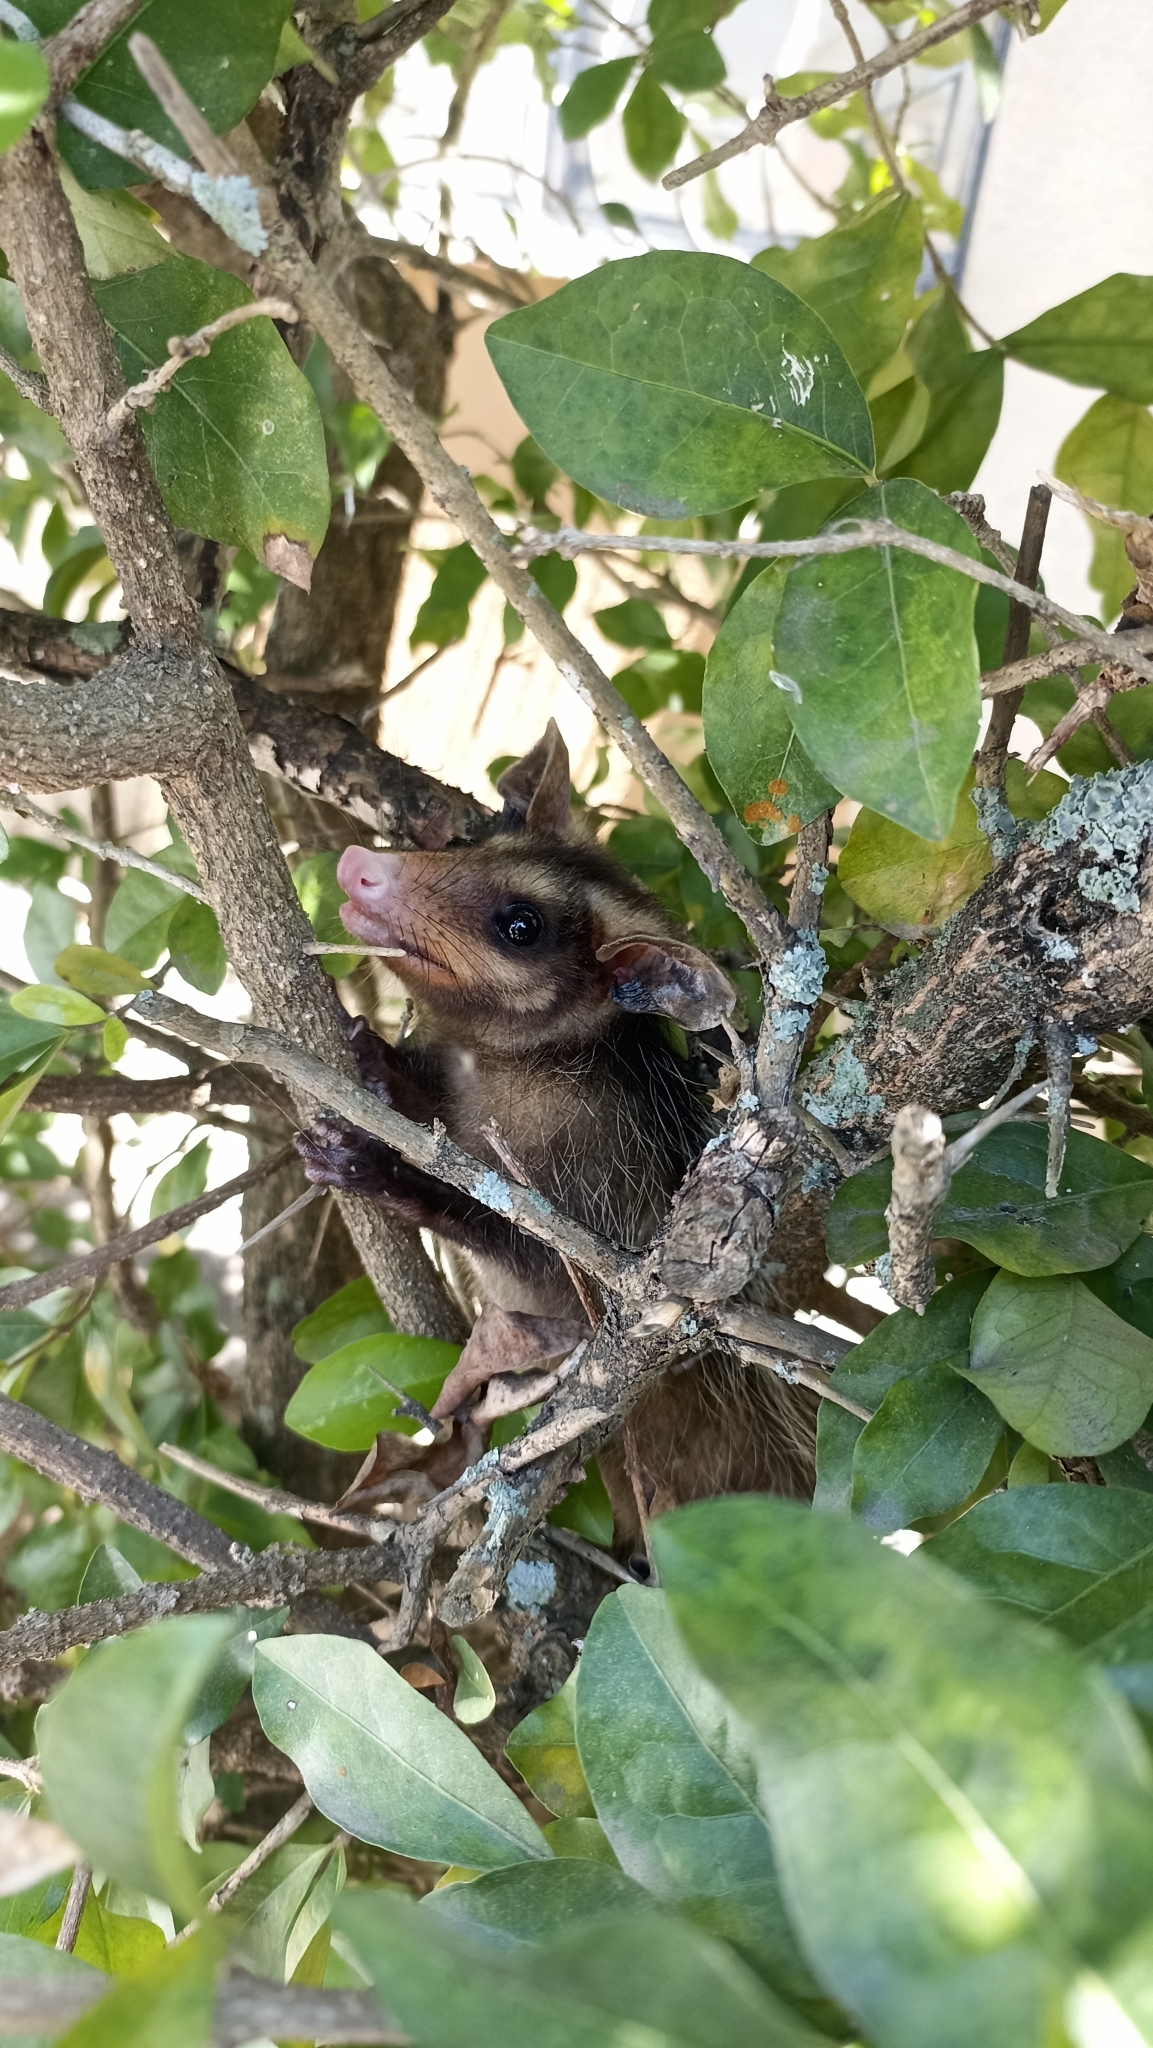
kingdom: Animalia
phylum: Chordata
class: Mammalia
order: Didelphimorphia
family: Didelphidae
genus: Didelphis
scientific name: Didelphis aurita
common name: Big-eared opossum
